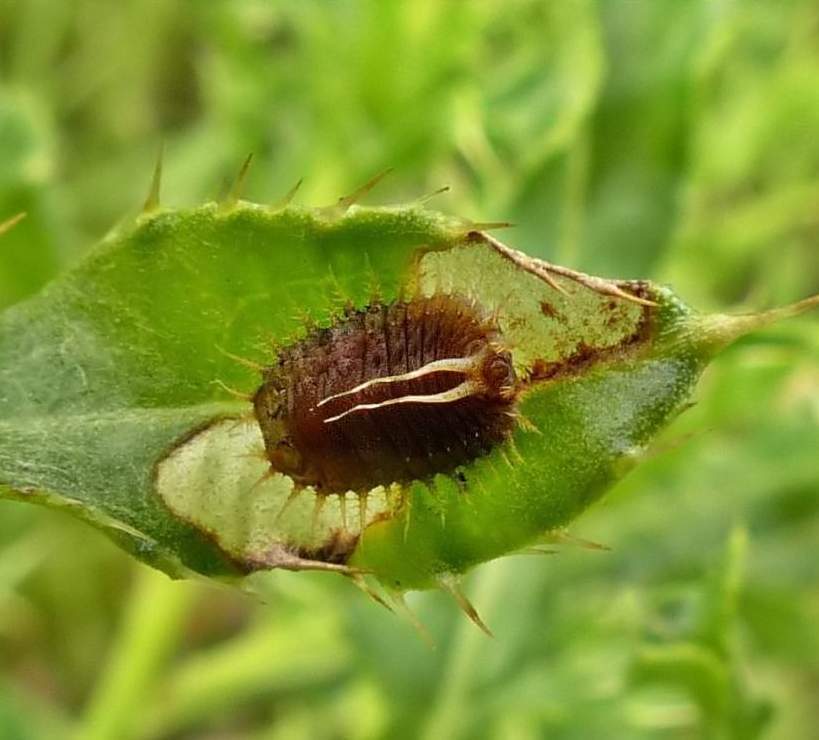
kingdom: Animalia
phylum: Arthropoda
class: Insecta
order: Coleoptera
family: Chrysomelidae
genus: Cassida
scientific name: Cassida rubiginosa
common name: Thistle tortoise beetle
